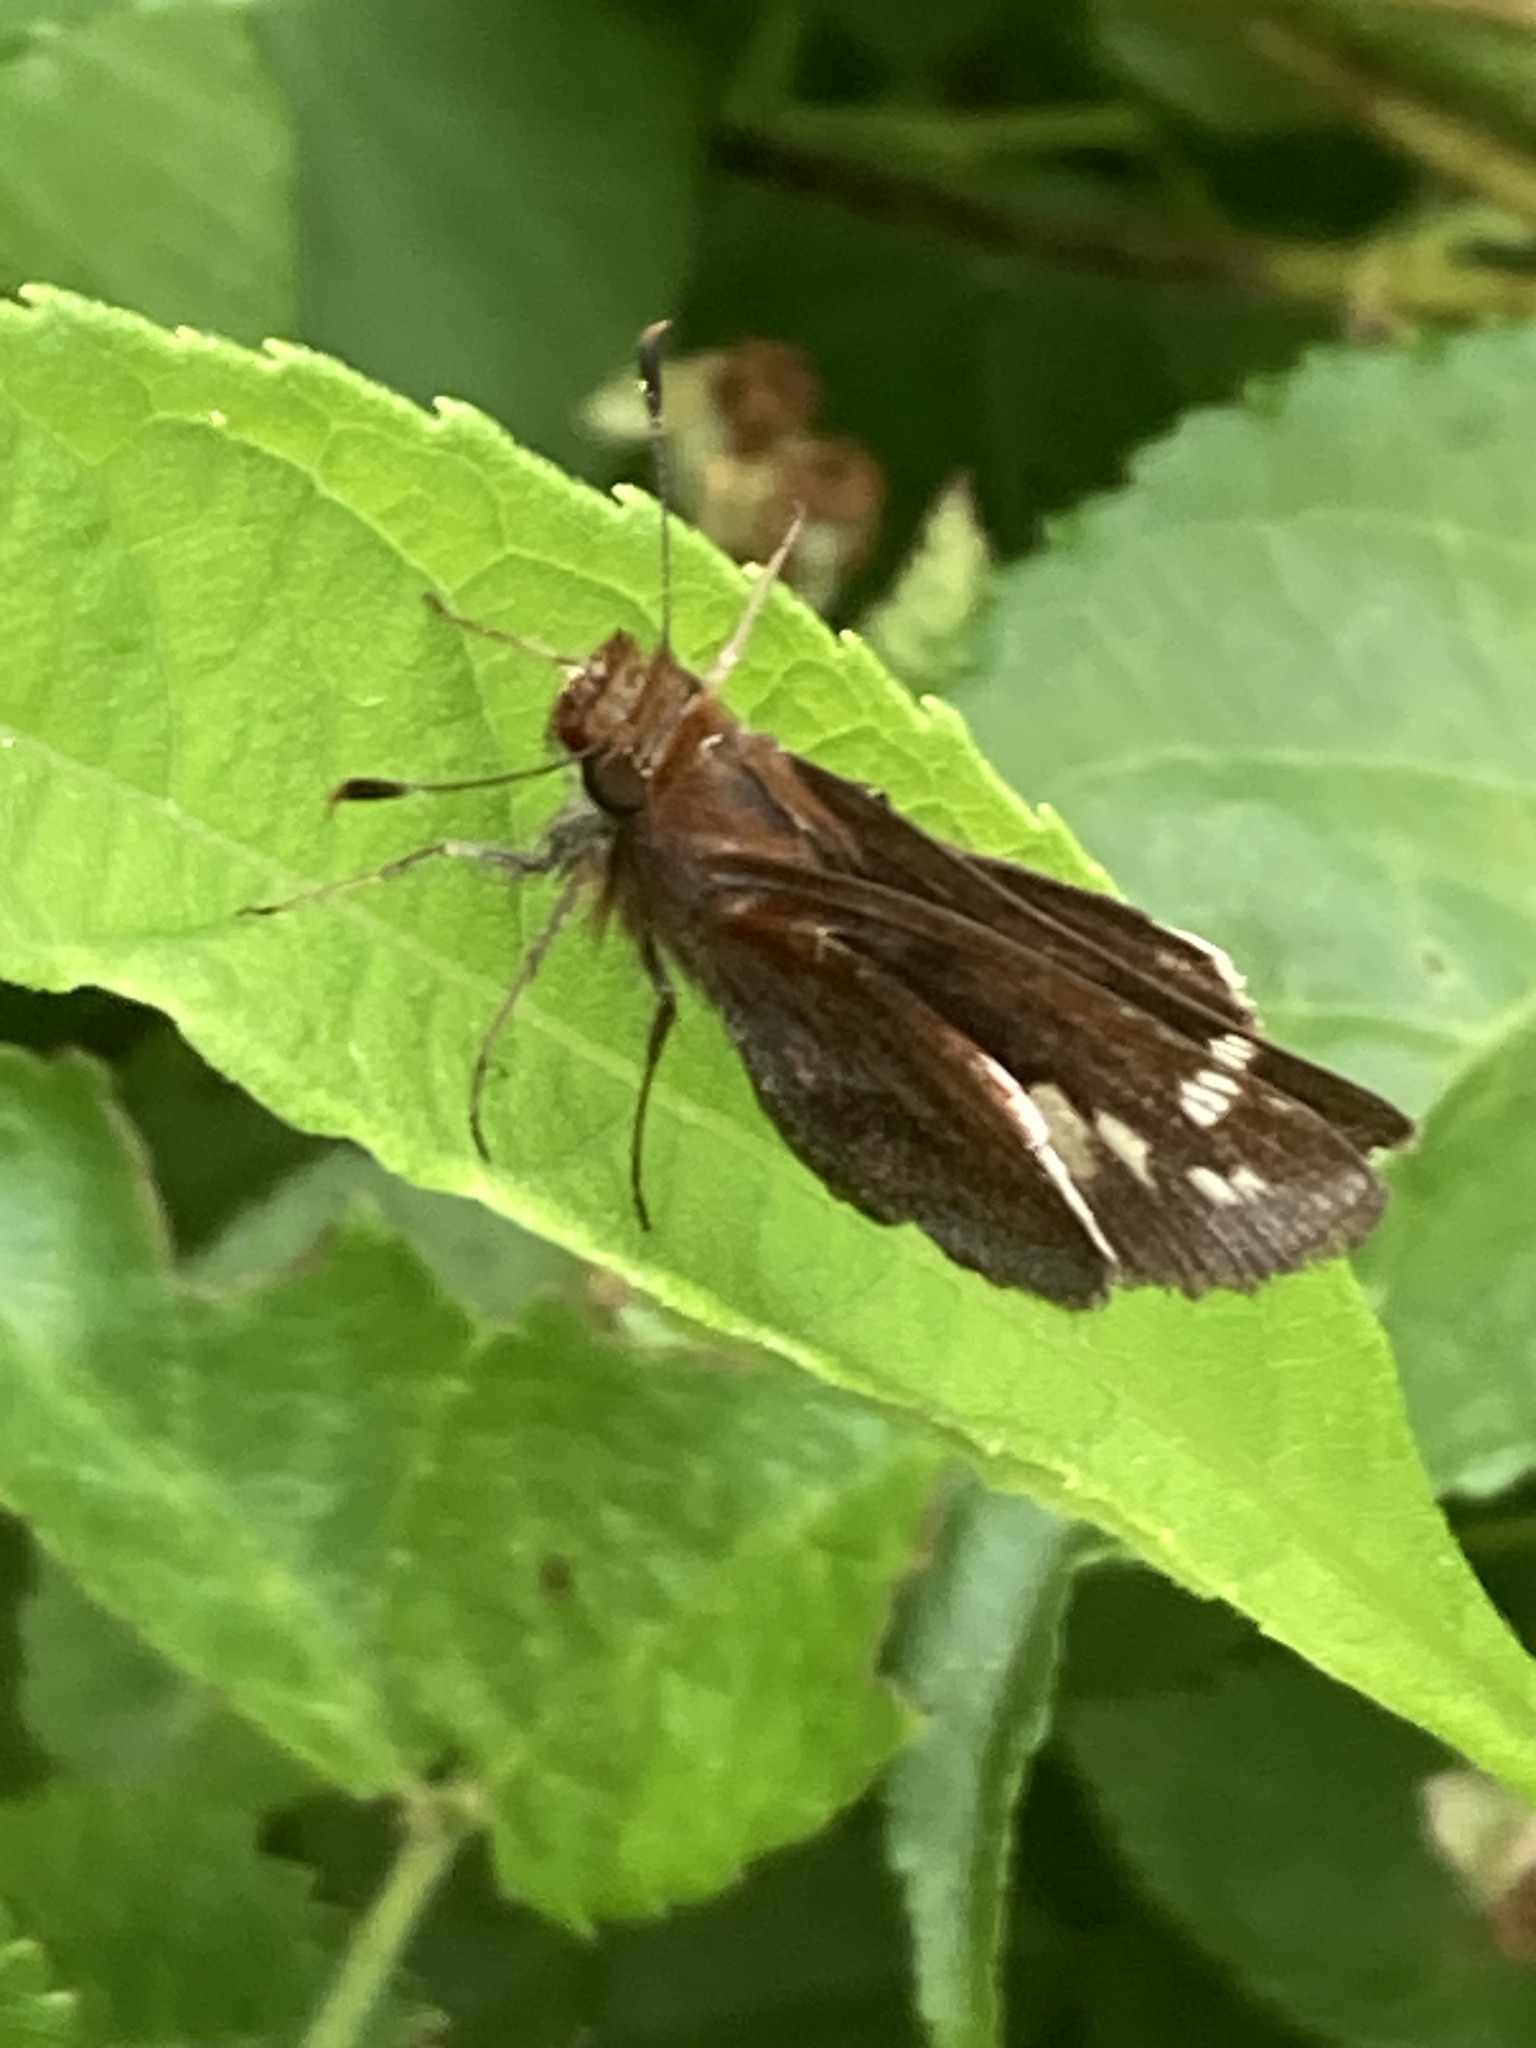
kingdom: Animalia
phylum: Arthropoda
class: Insecta
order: Lepidoptera
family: Hesperiidae
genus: Lon
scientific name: Lon zabulon
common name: Zabulon skipper
